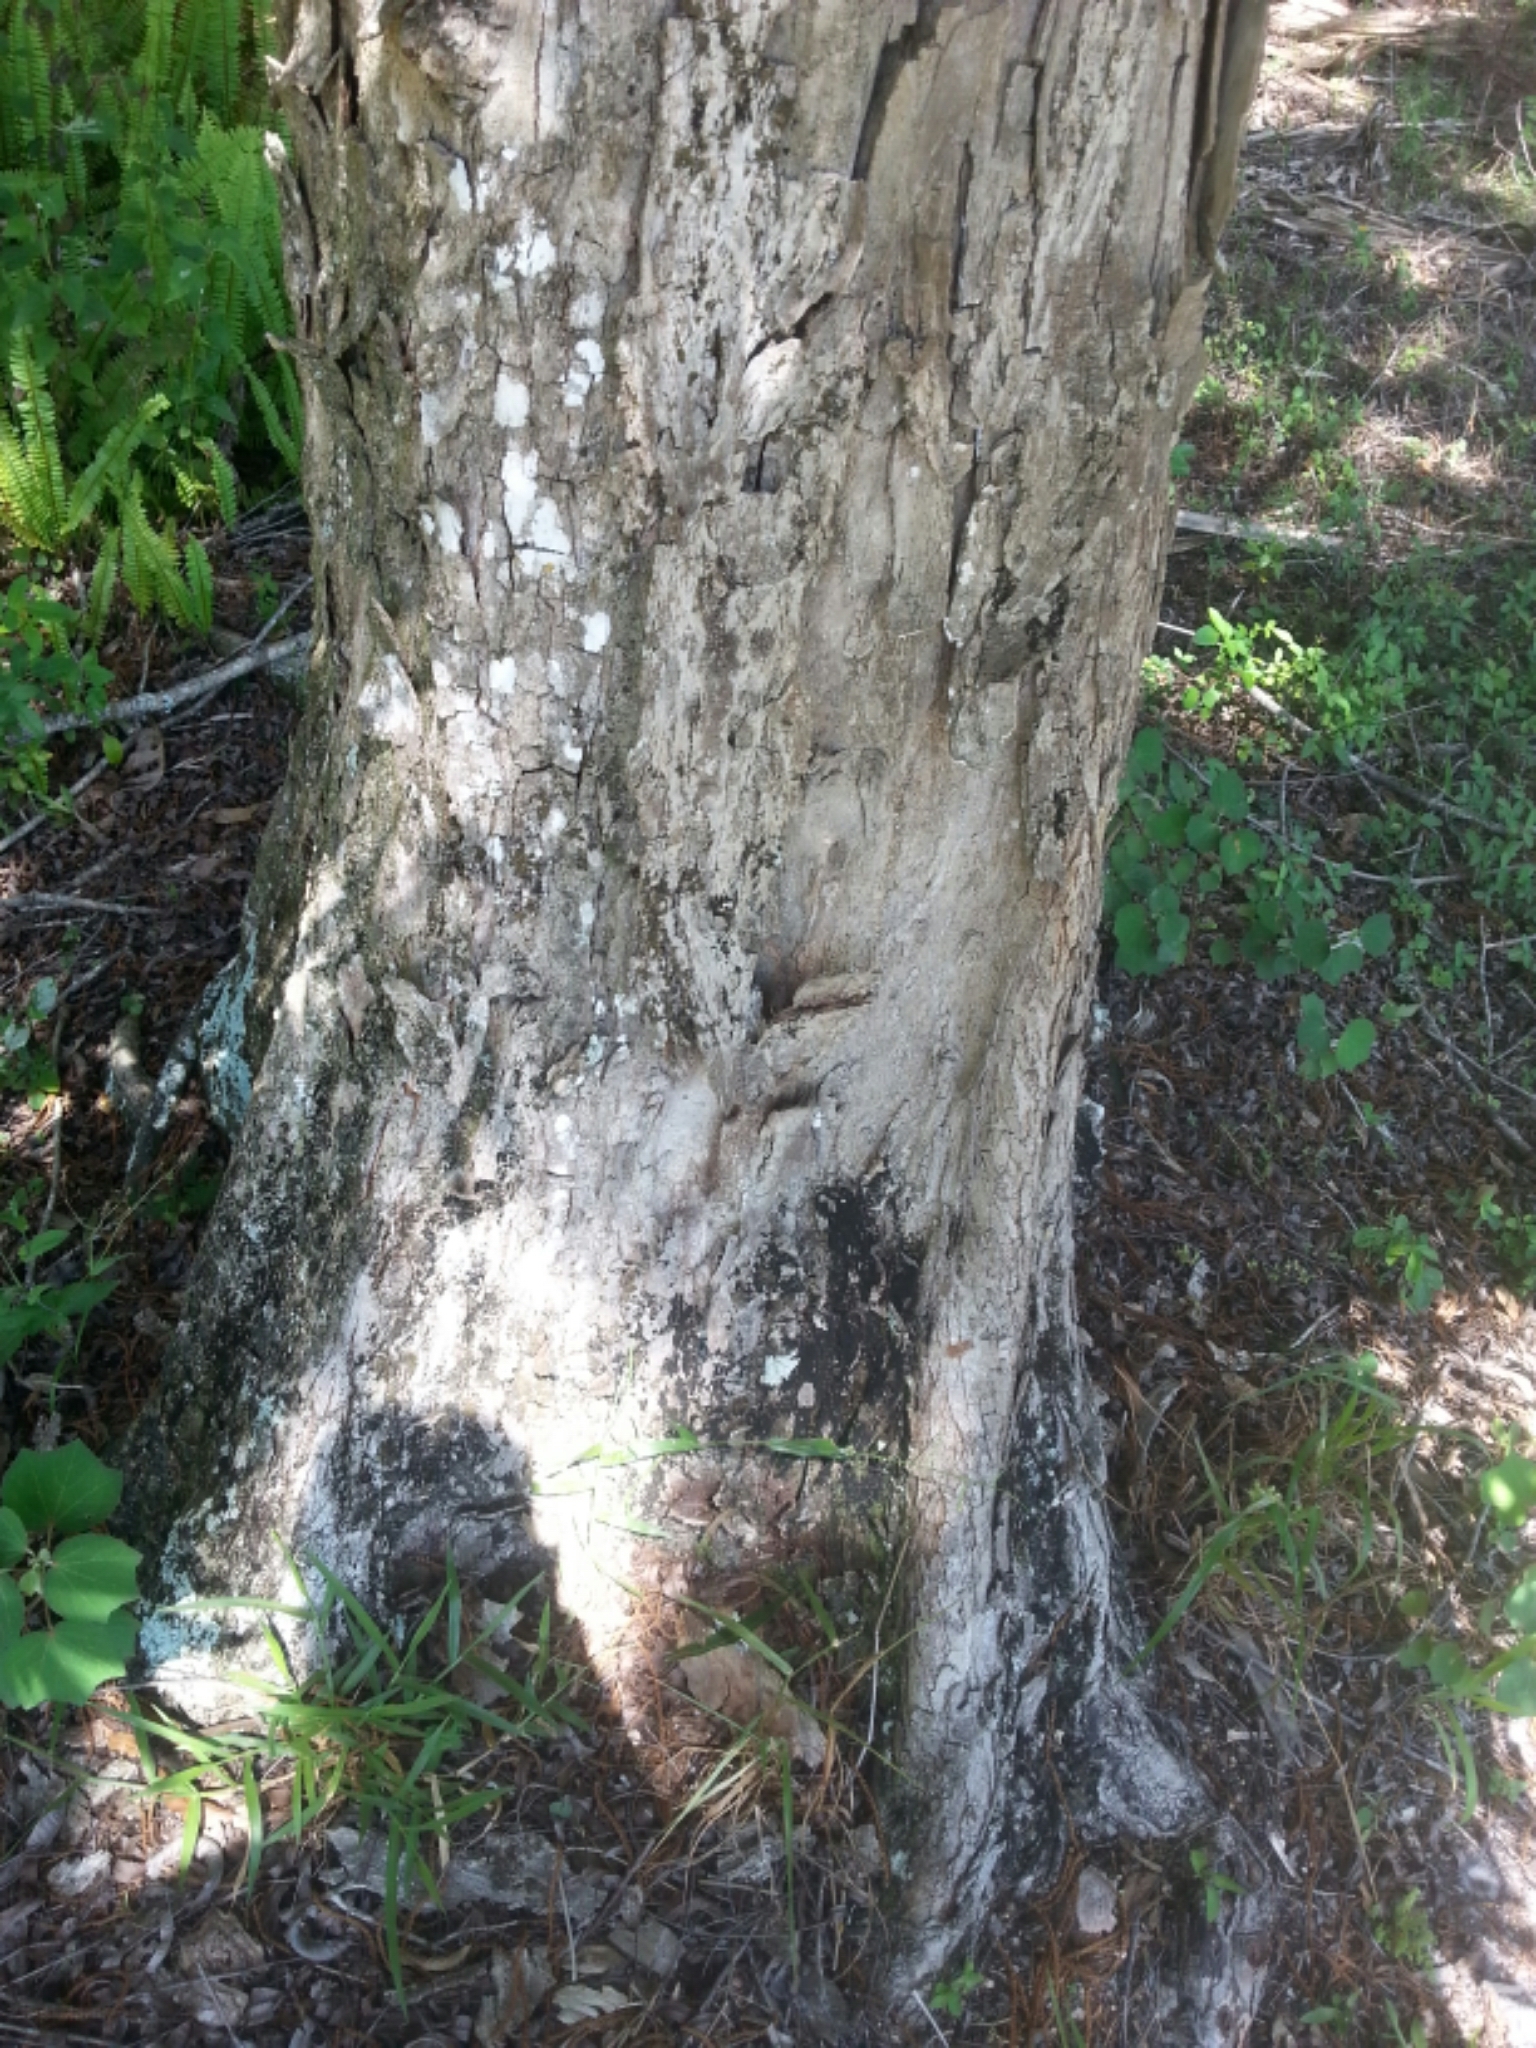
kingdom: Plantae
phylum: Tracheophyta
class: Magnoliopsida
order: Fagales
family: Juglandaceae
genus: Carya
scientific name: Carya aquatica
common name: Water hickory
